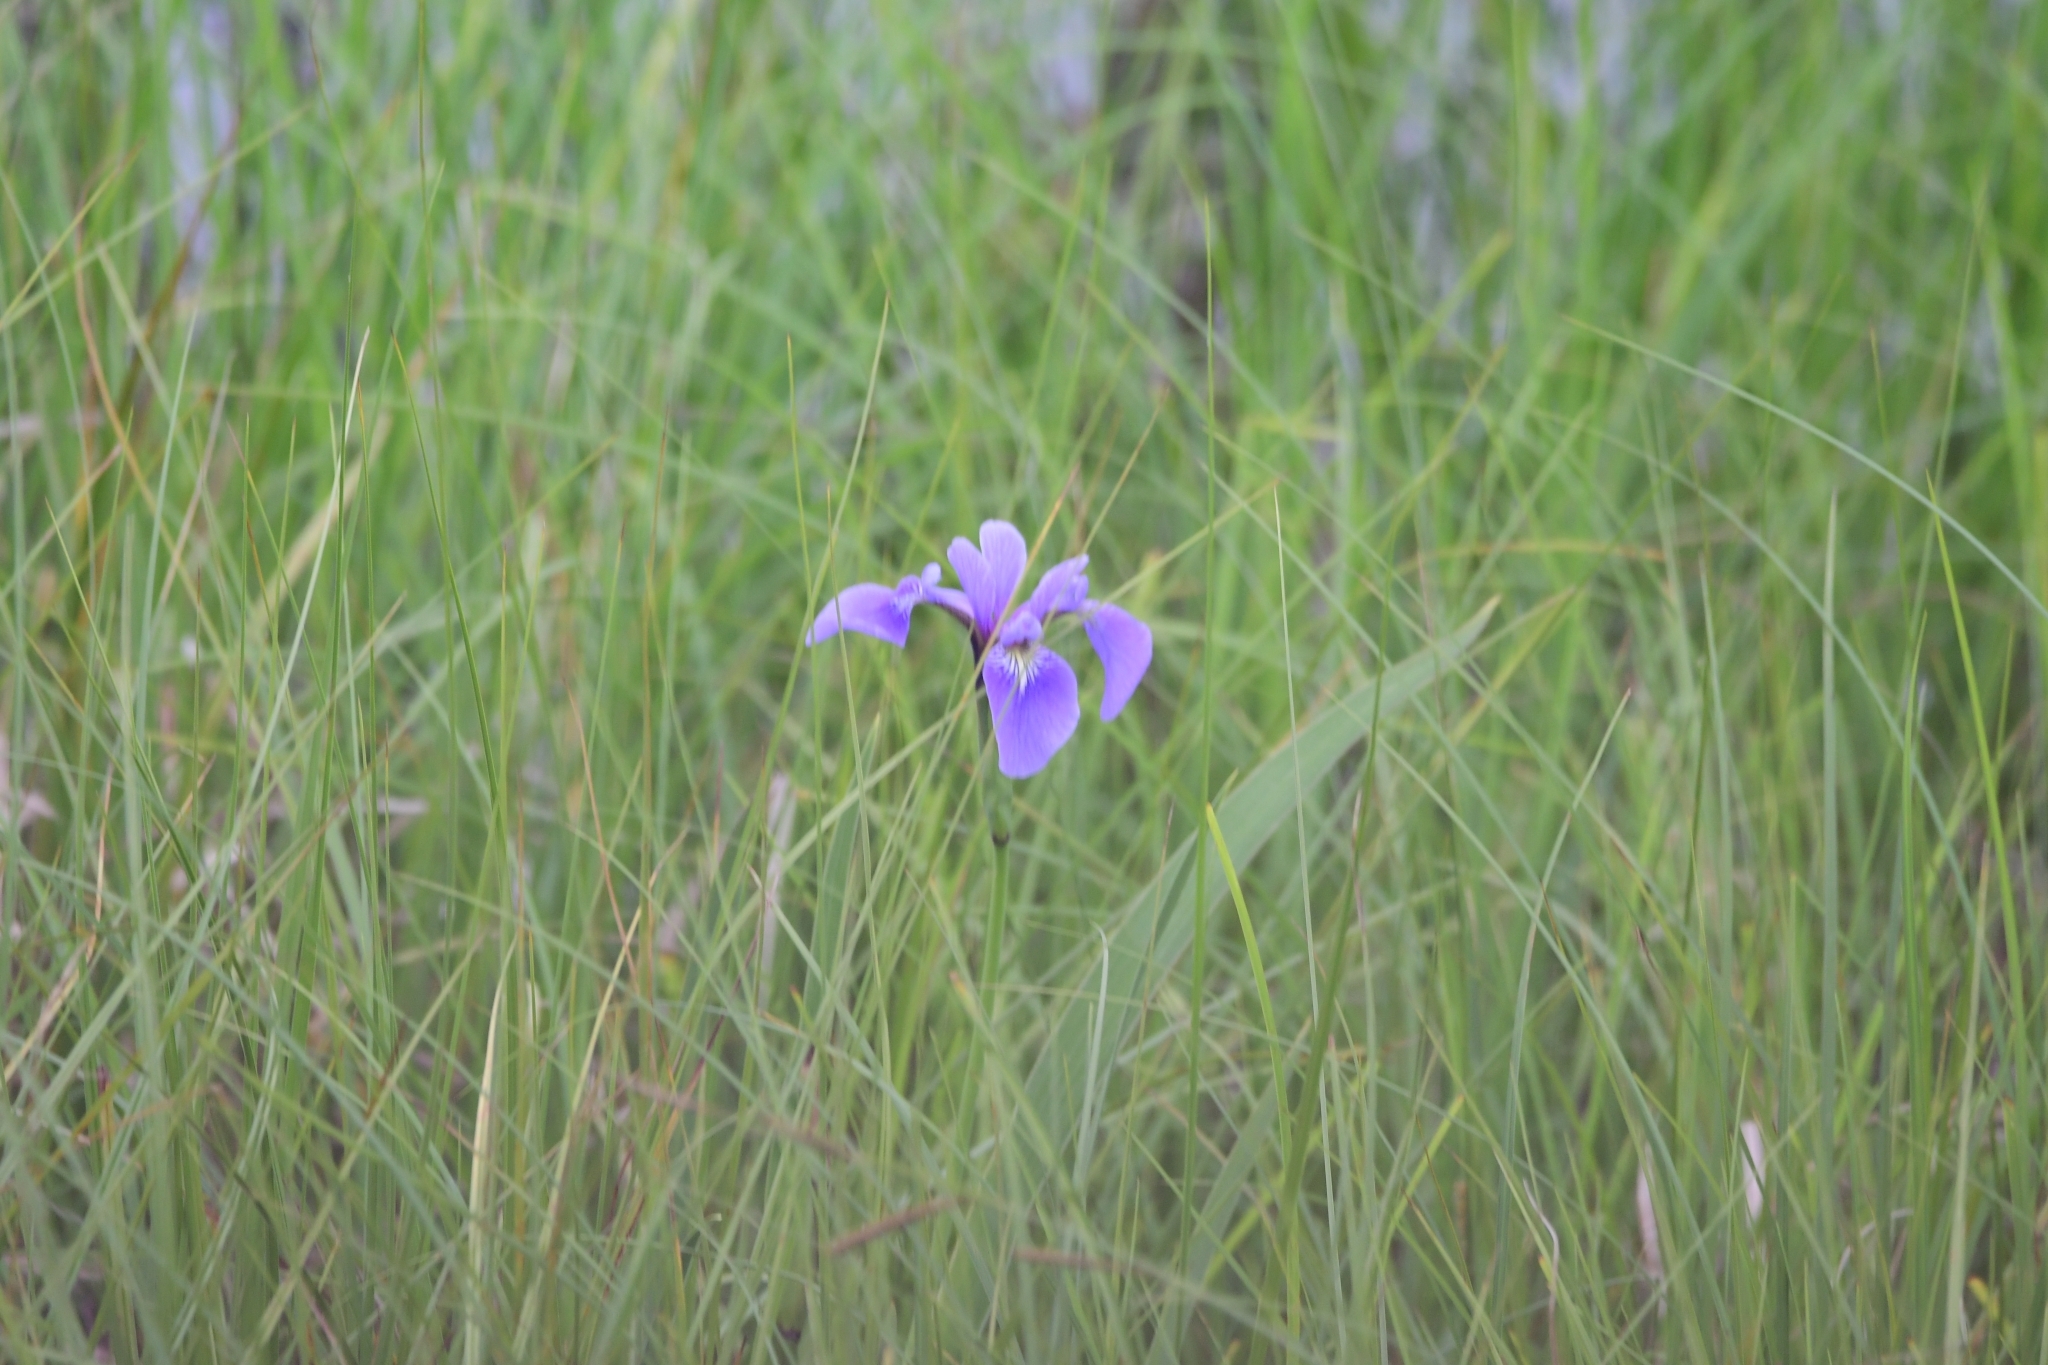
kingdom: Plantae
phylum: Tracheophyta
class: Liliopsida
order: Asparagales
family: Iridaceae
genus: Iris
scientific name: Iris versicolor
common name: Purple iris
